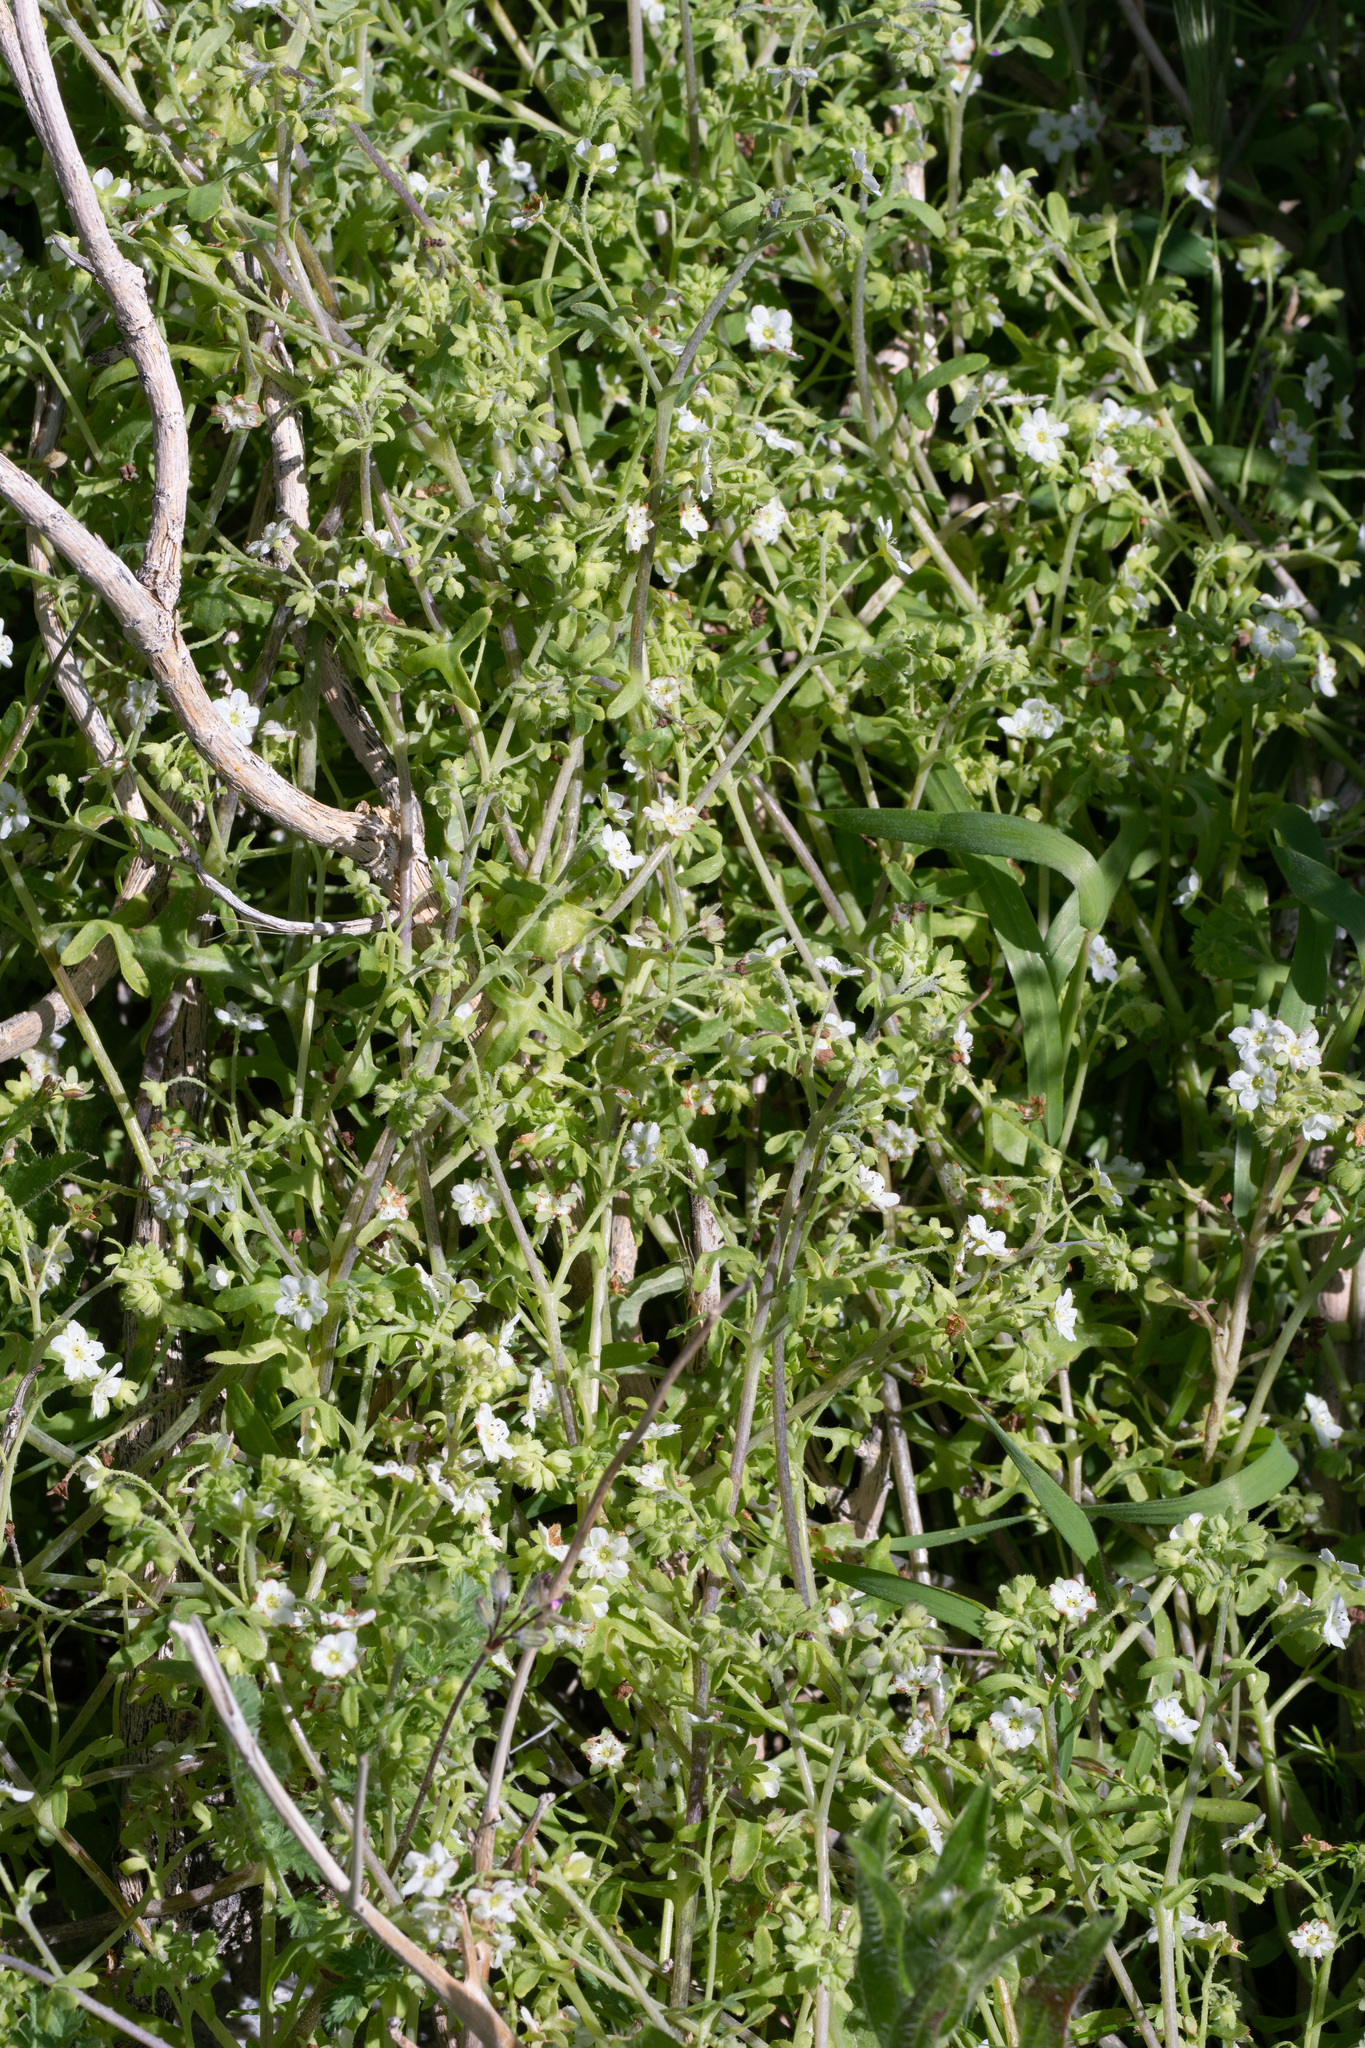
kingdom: Plantae
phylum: Tracheophyta
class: Magnoliopsida
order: Boraginales
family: Hydrophyllaceae
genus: Pholistoma
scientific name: Pholistoma membranaceum
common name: White fiesta-flower
